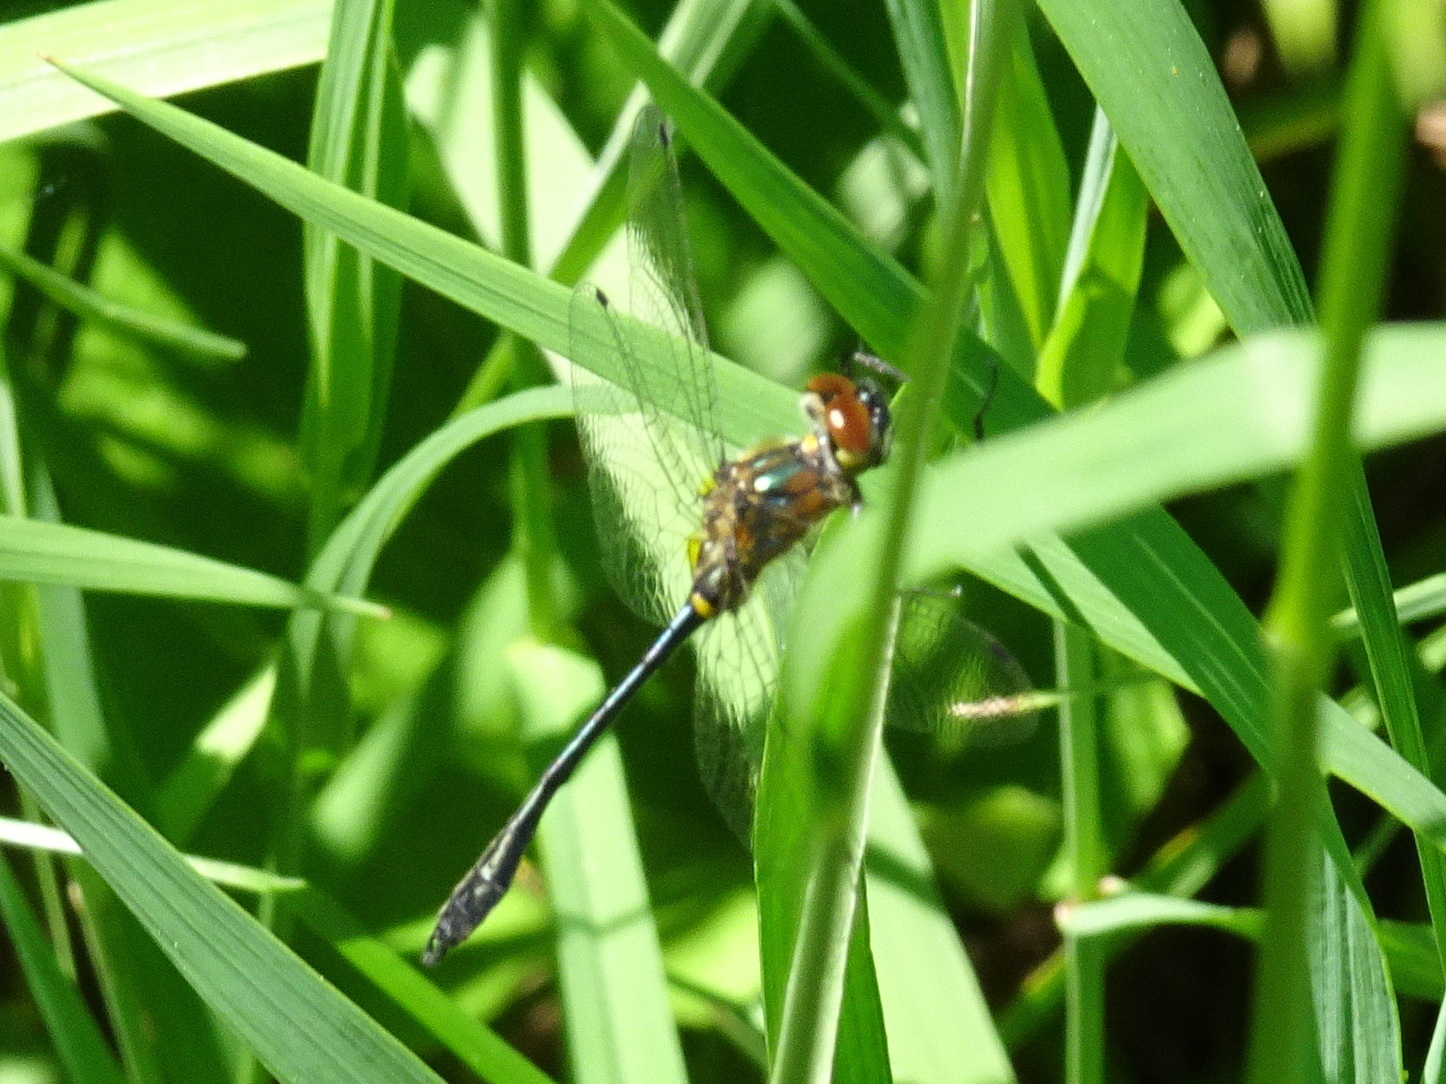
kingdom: Animalia
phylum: Arthropoda
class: Insecta
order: Odonata
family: Corduliidae
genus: Dorocordulia
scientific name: Dorocordulia libera
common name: Racket-tailed emerald
